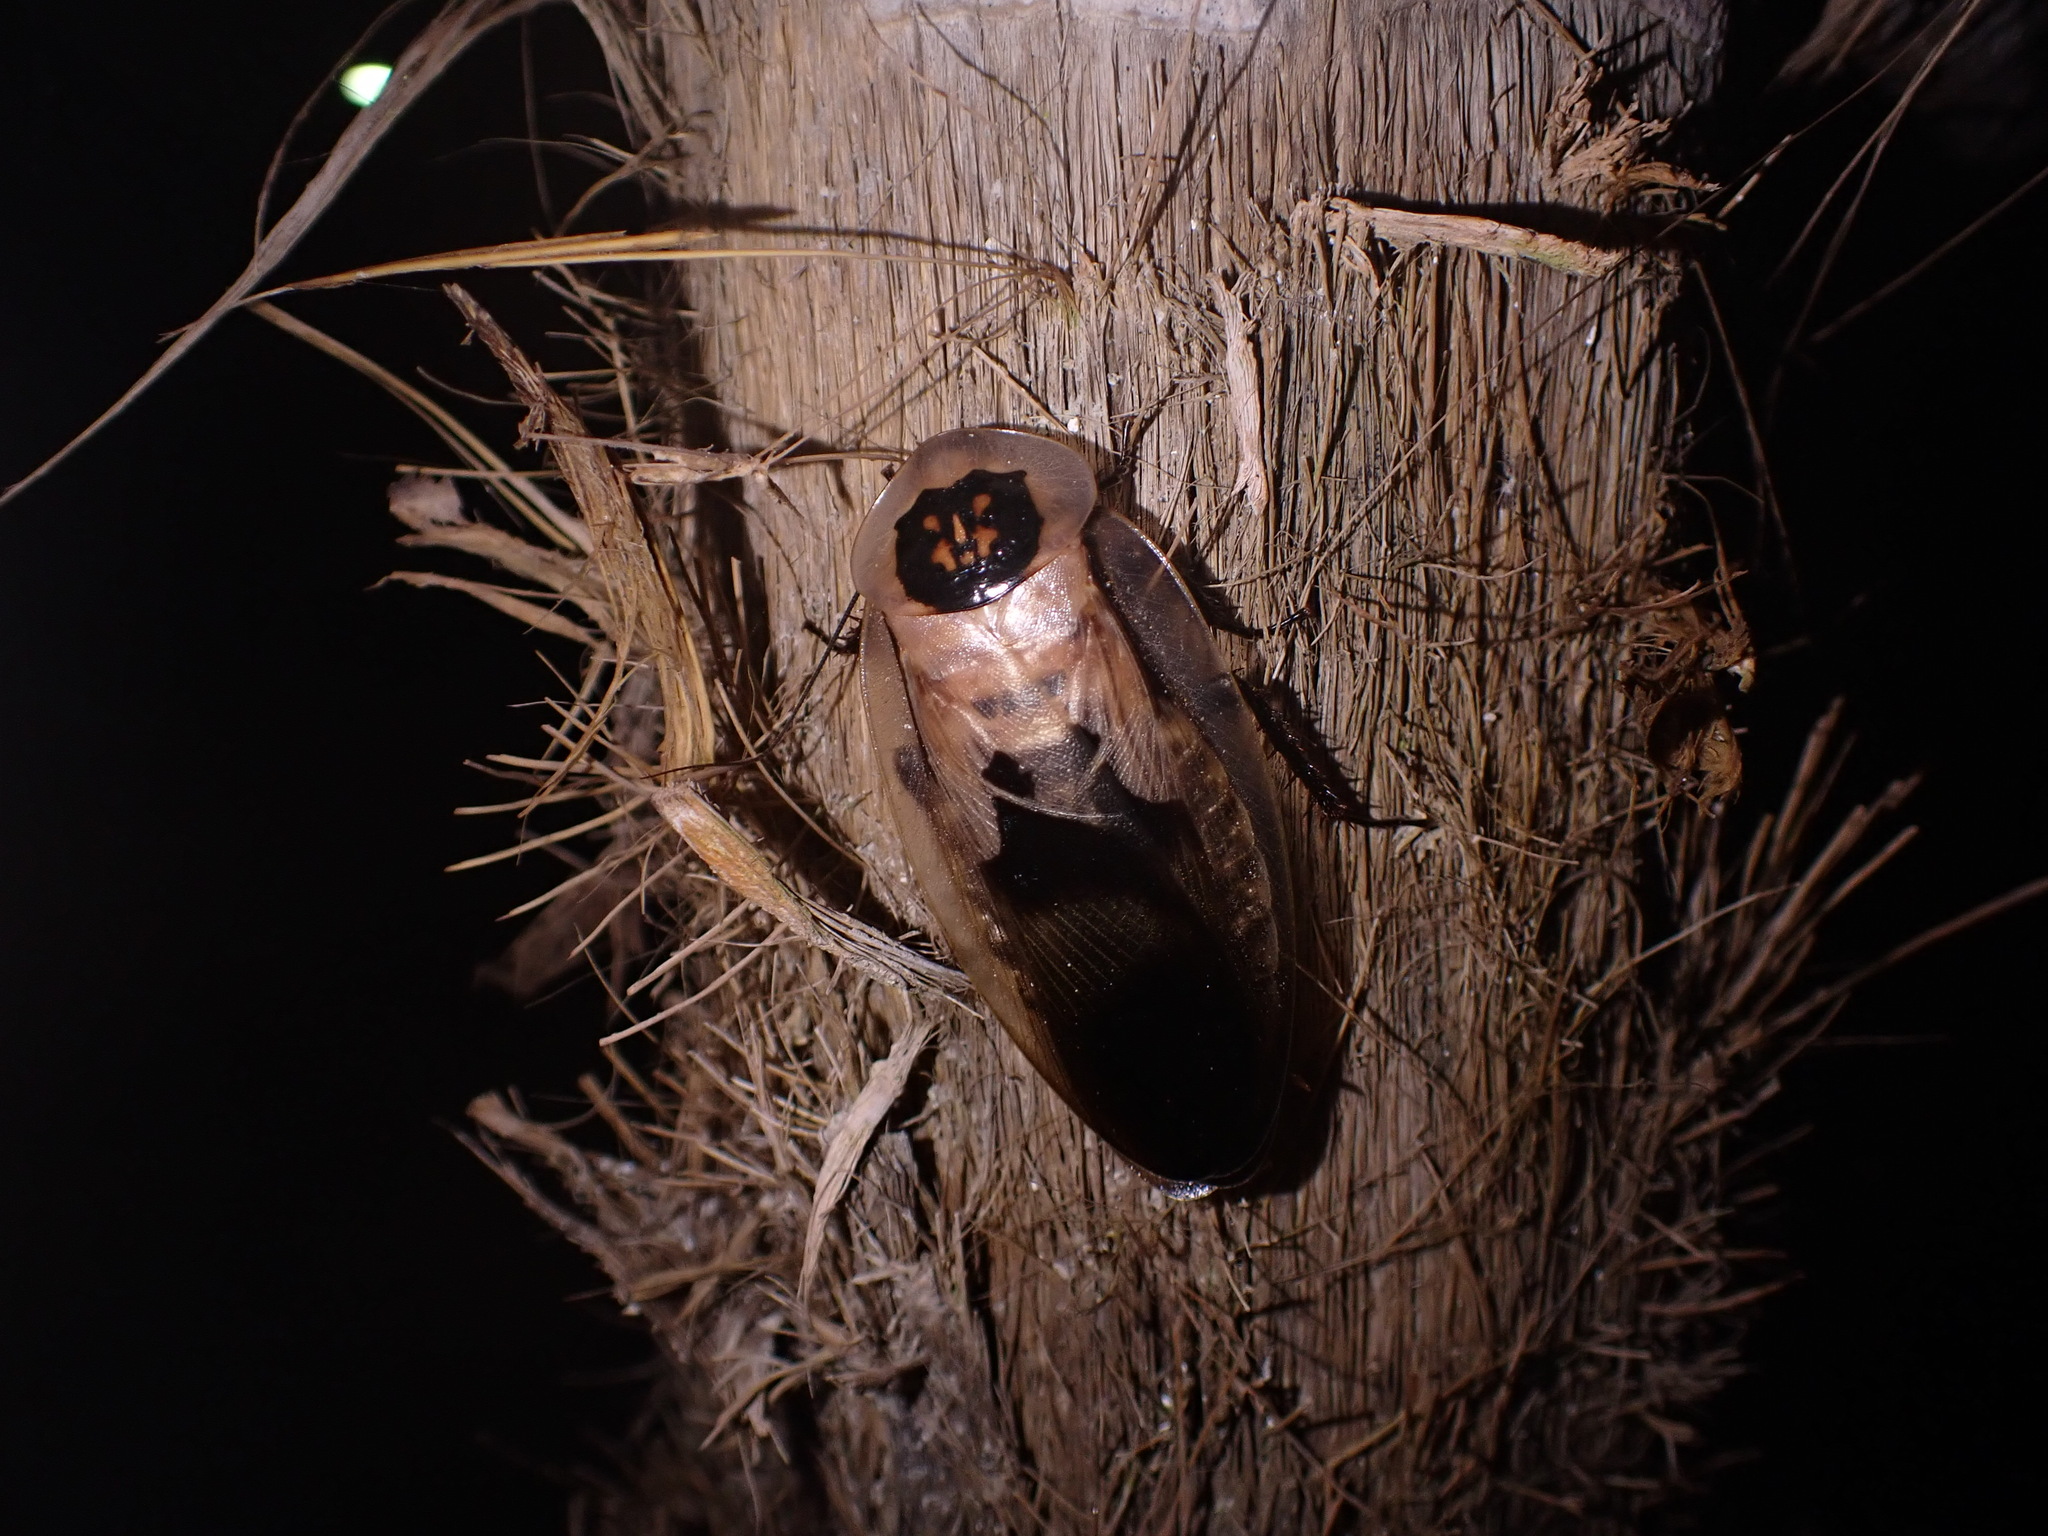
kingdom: Animalia
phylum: Arthropoda
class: Insecta
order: Blattodea
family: Blaberidae
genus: Blaberus
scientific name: Blaberus craniifer
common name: Death's head cockroach
